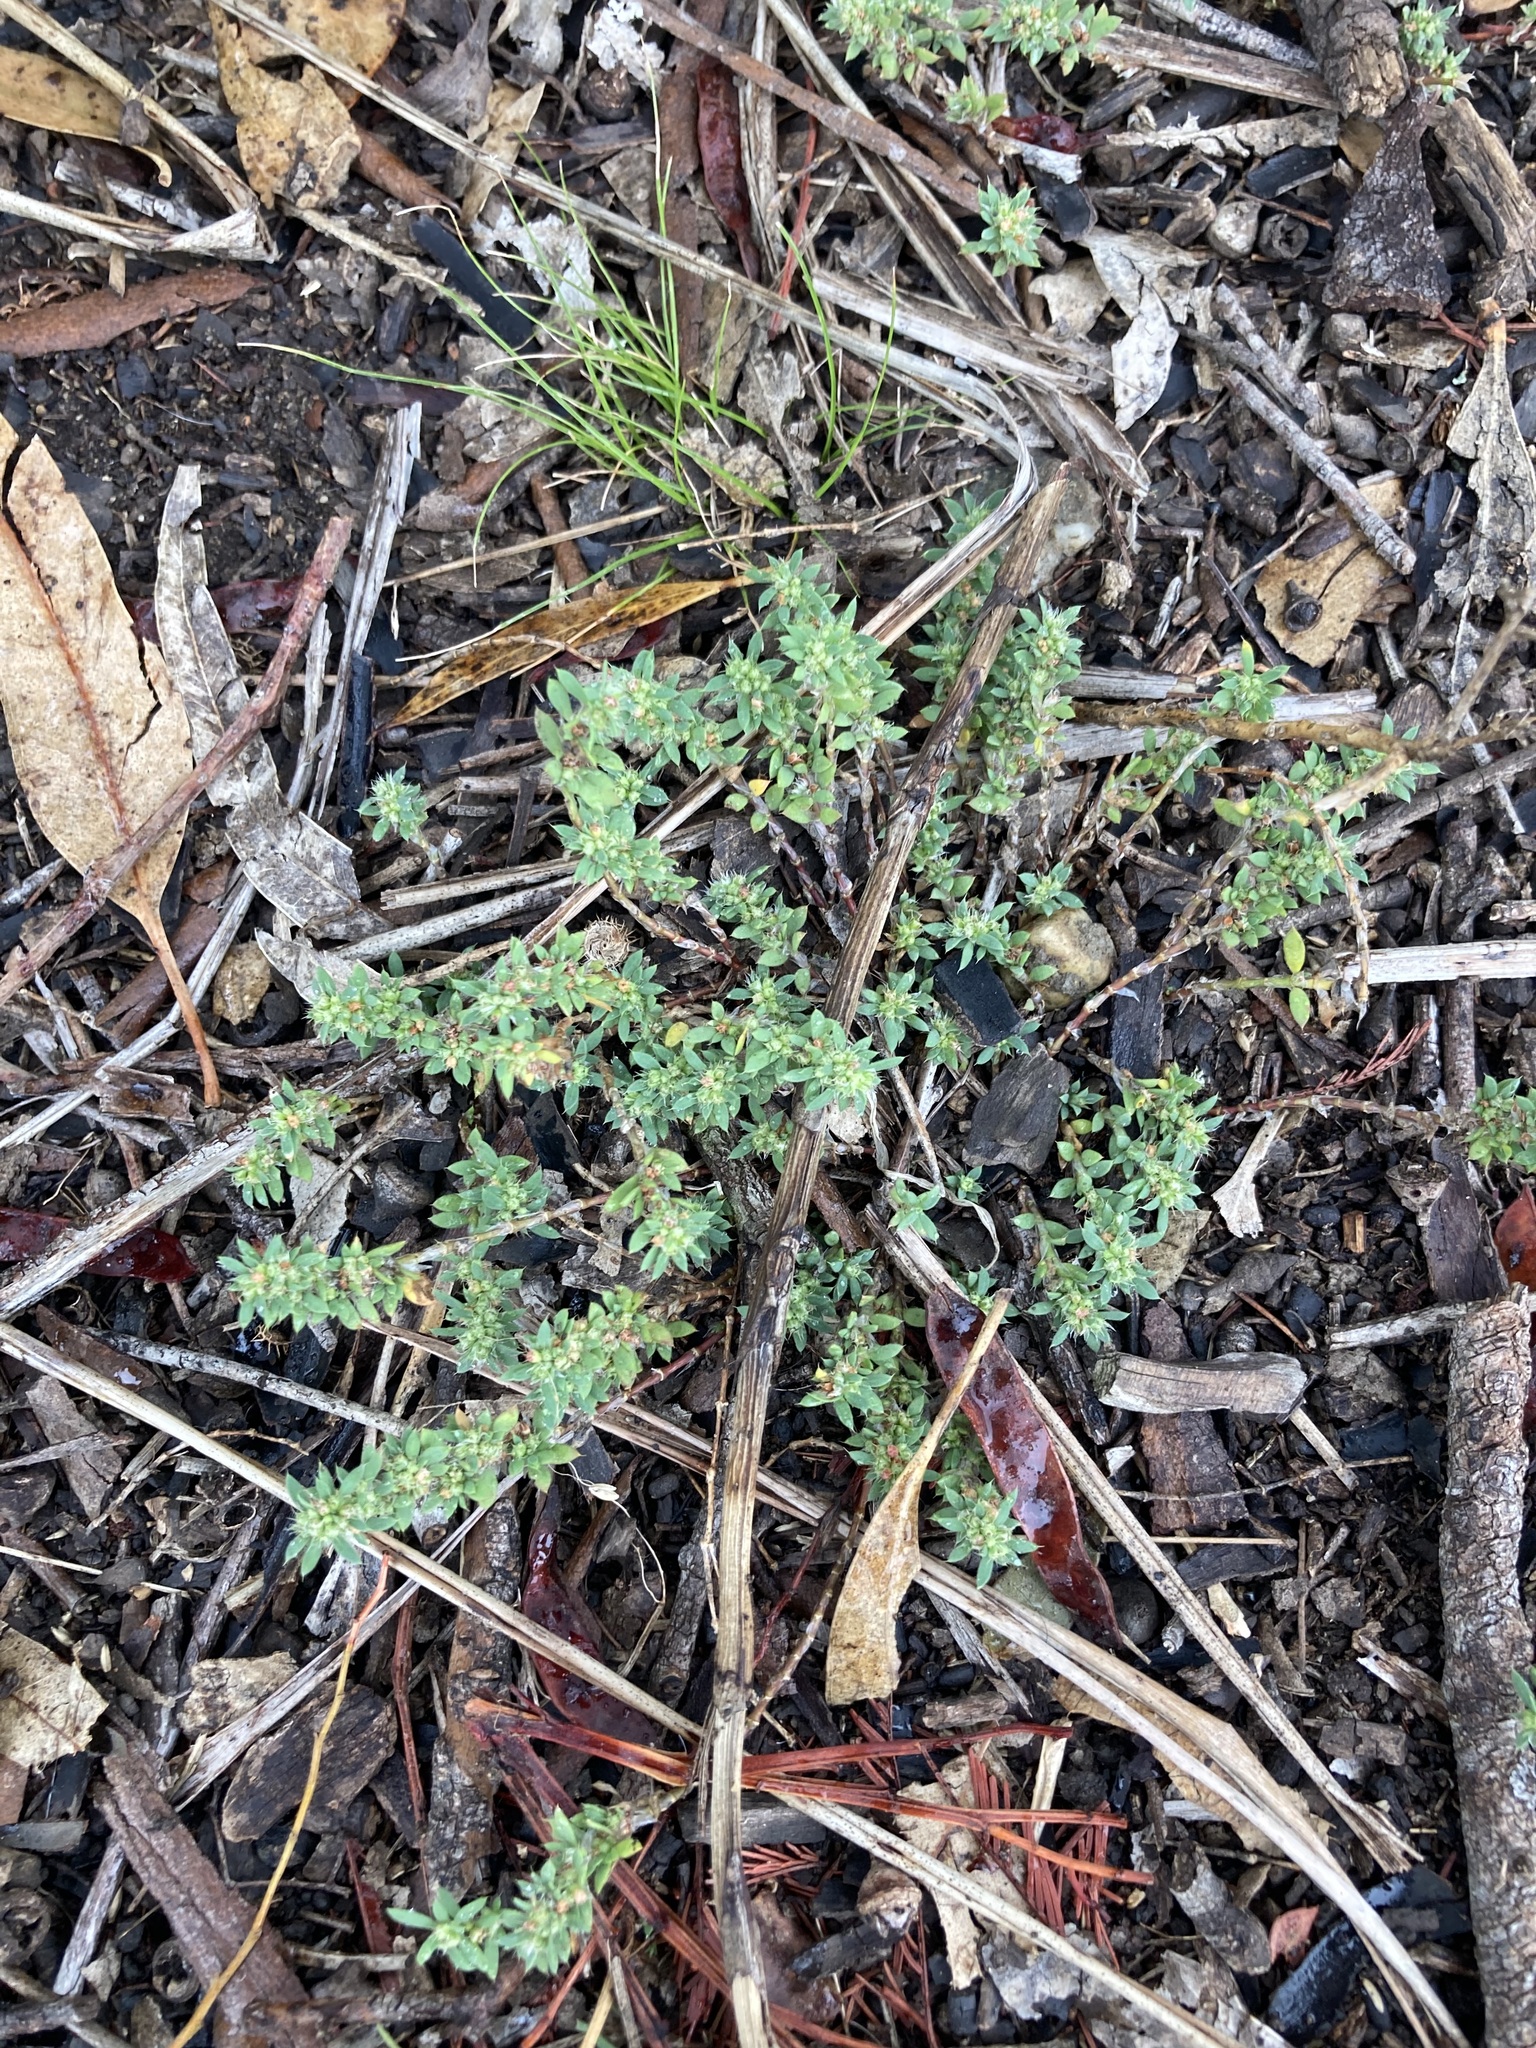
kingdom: Plantae
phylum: Tracheophyta
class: Magnoliopsida
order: Caryophyllales
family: Caryophyllaceae
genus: Paronychia
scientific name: Paronychia brasiliana
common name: Brazilian whitlow
